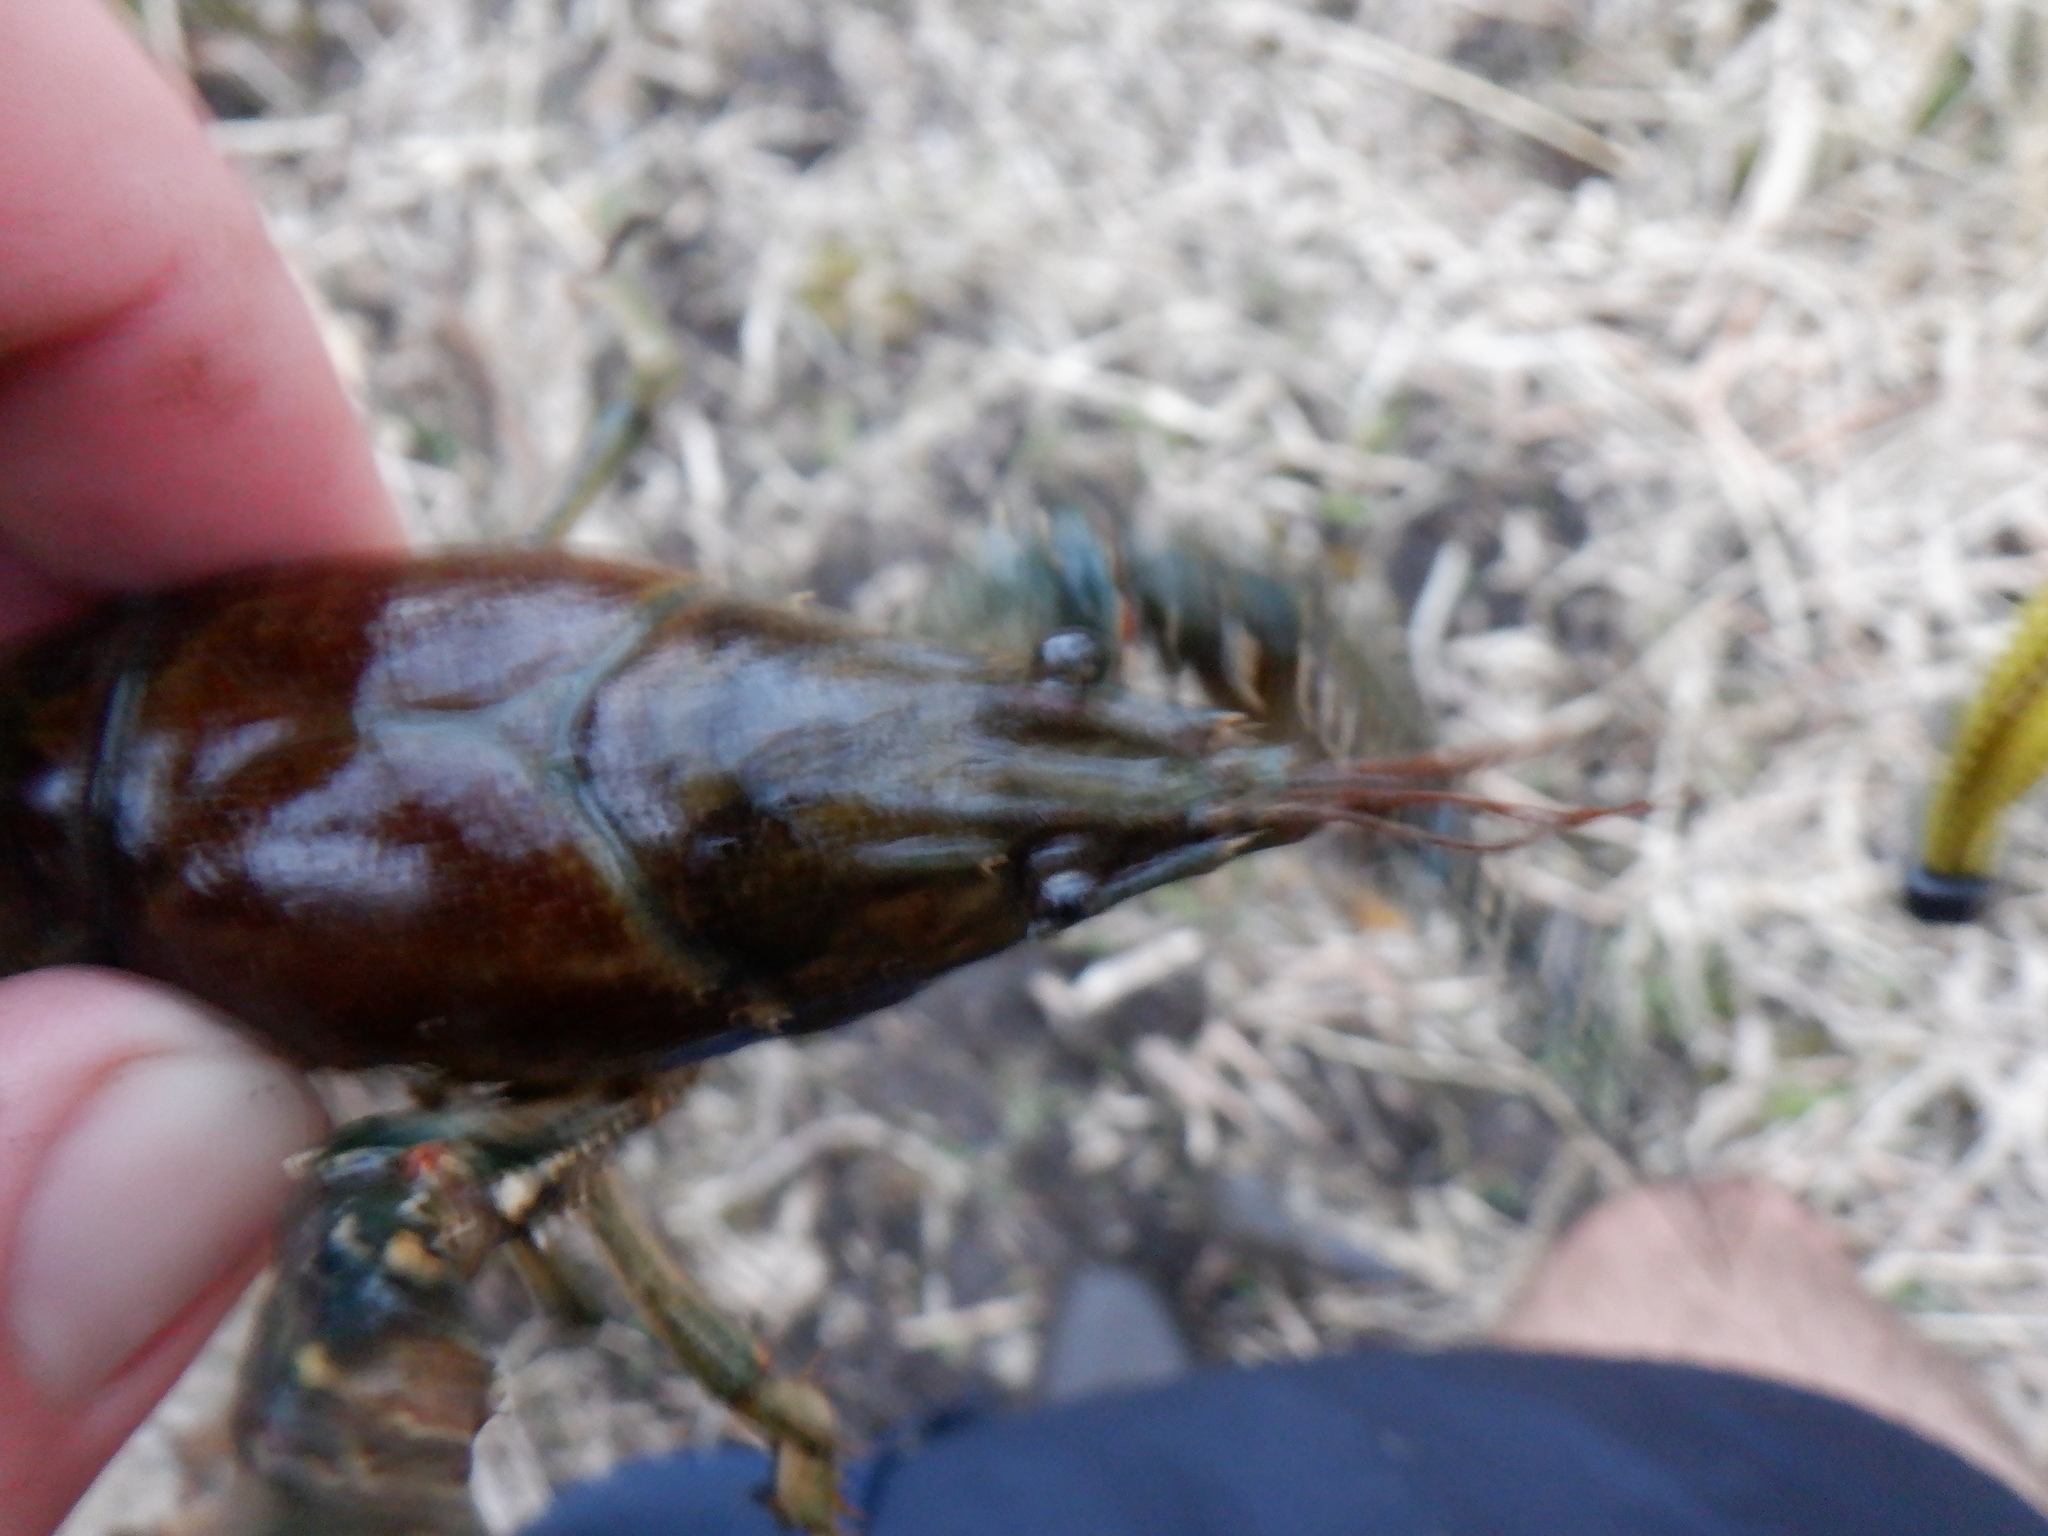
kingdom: Animalia
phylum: Arthropoda
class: Malacostraca
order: Decapoda
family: Cambaridae
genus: Faxonius
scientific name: Faxonius virilis
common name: Virile crayfish
